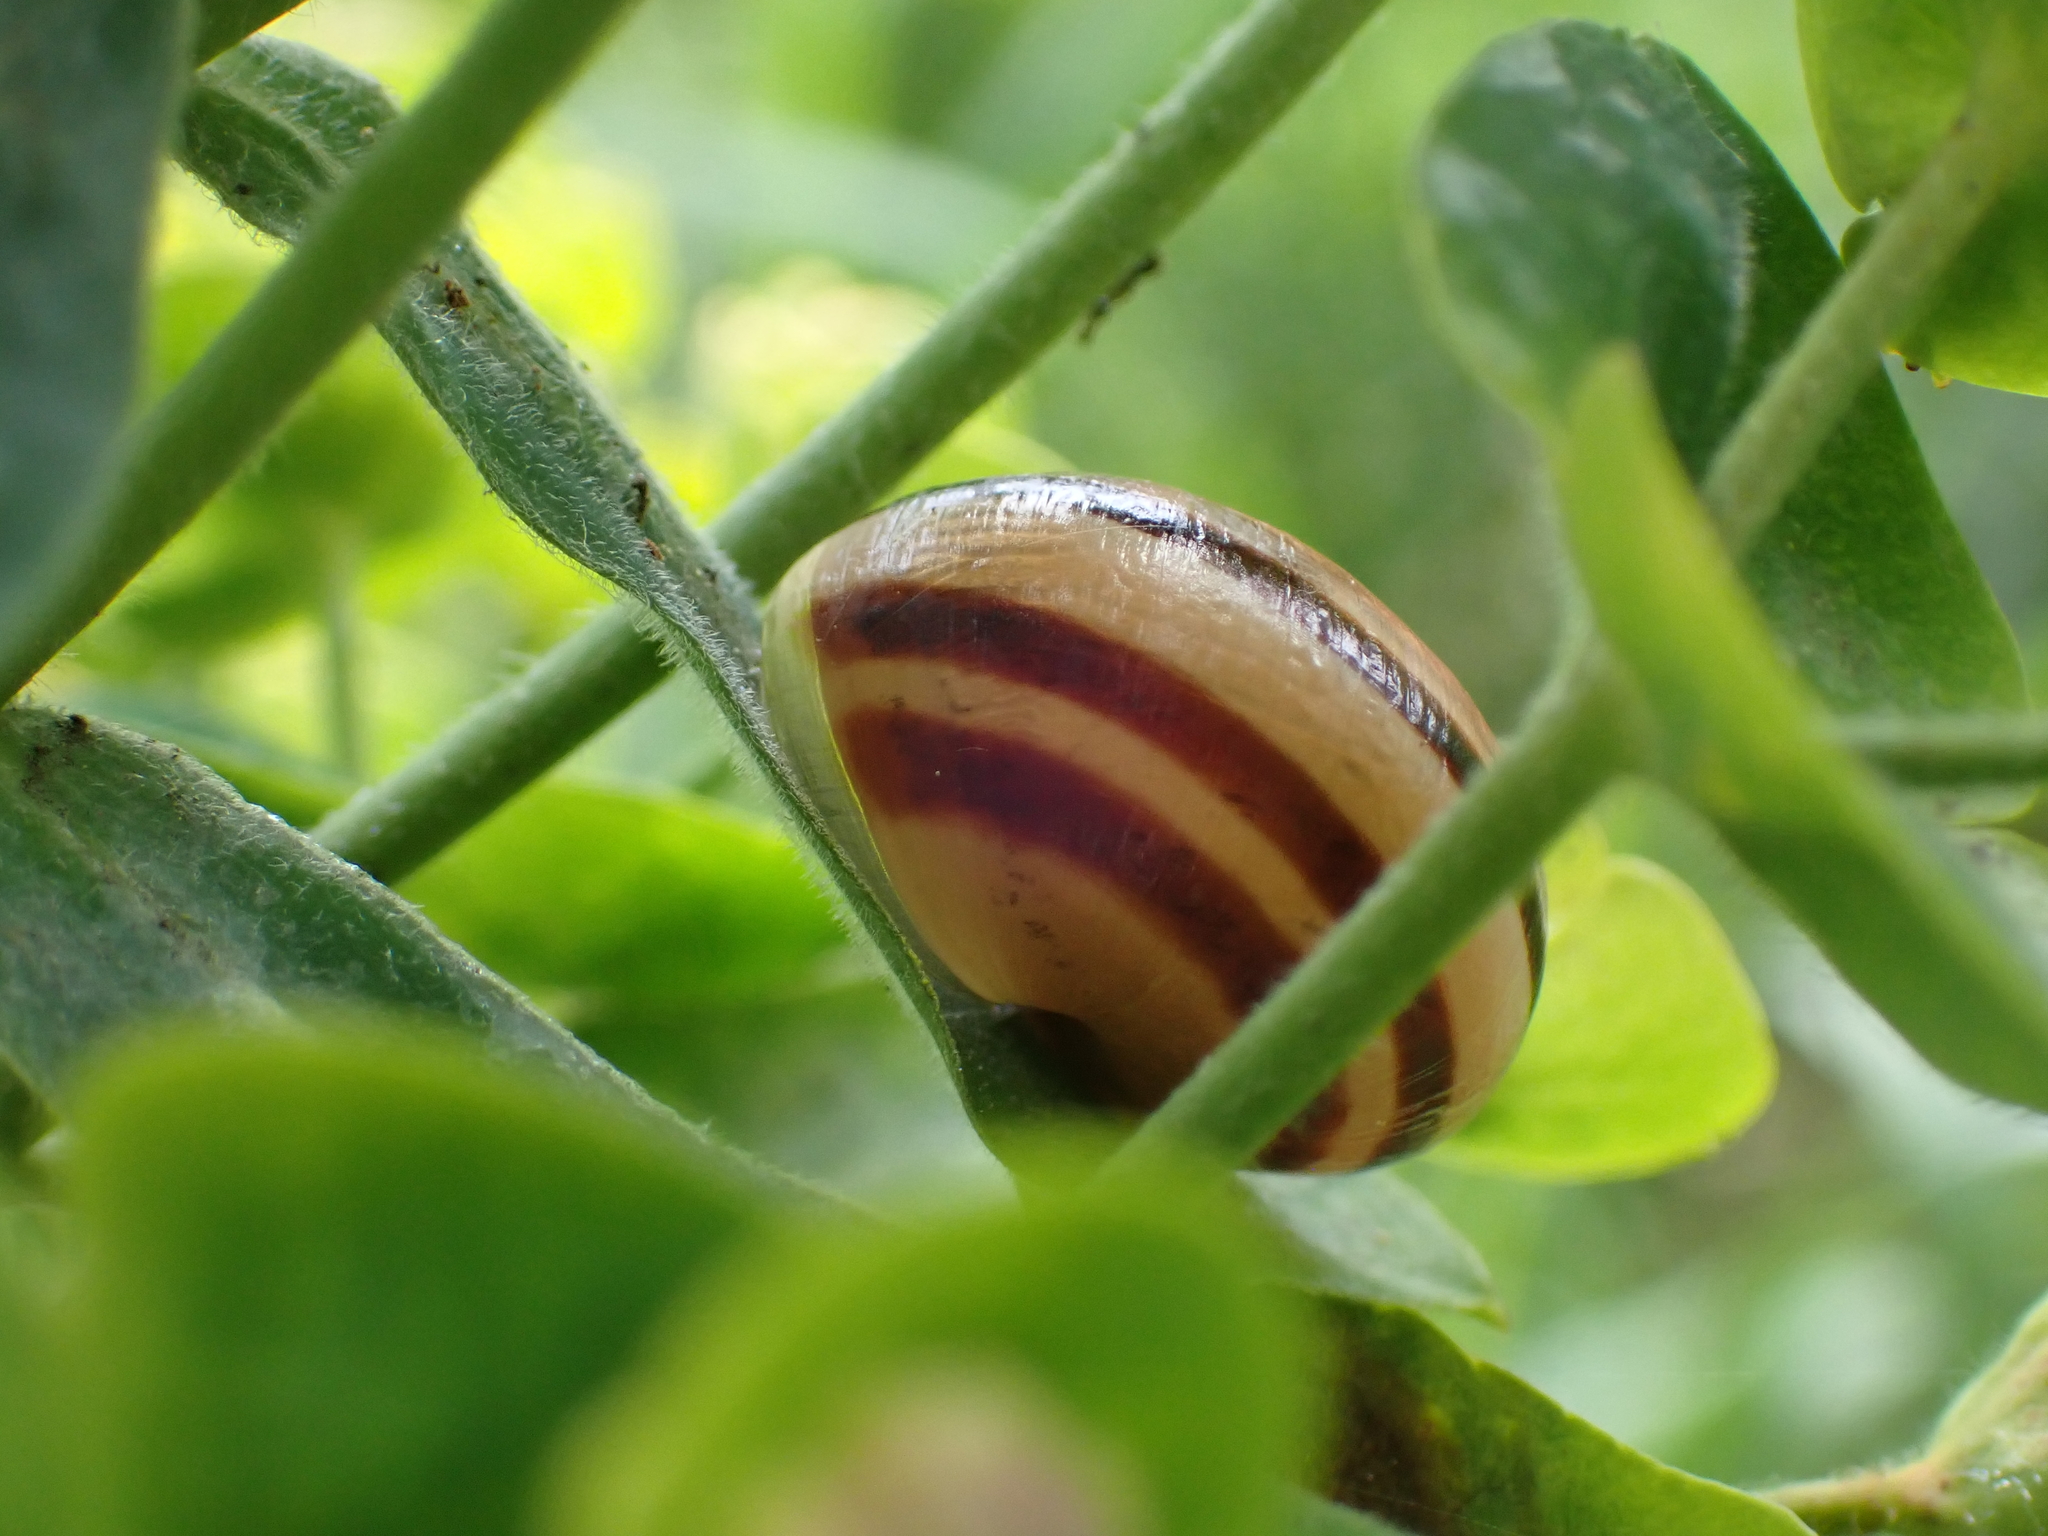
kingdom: Animalia
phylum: Mollusca
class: Gastropoda
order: Stylommatophora
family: Helicidae
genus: Cepaea
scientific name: Cepaea nemoralis
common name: Grovesnail
